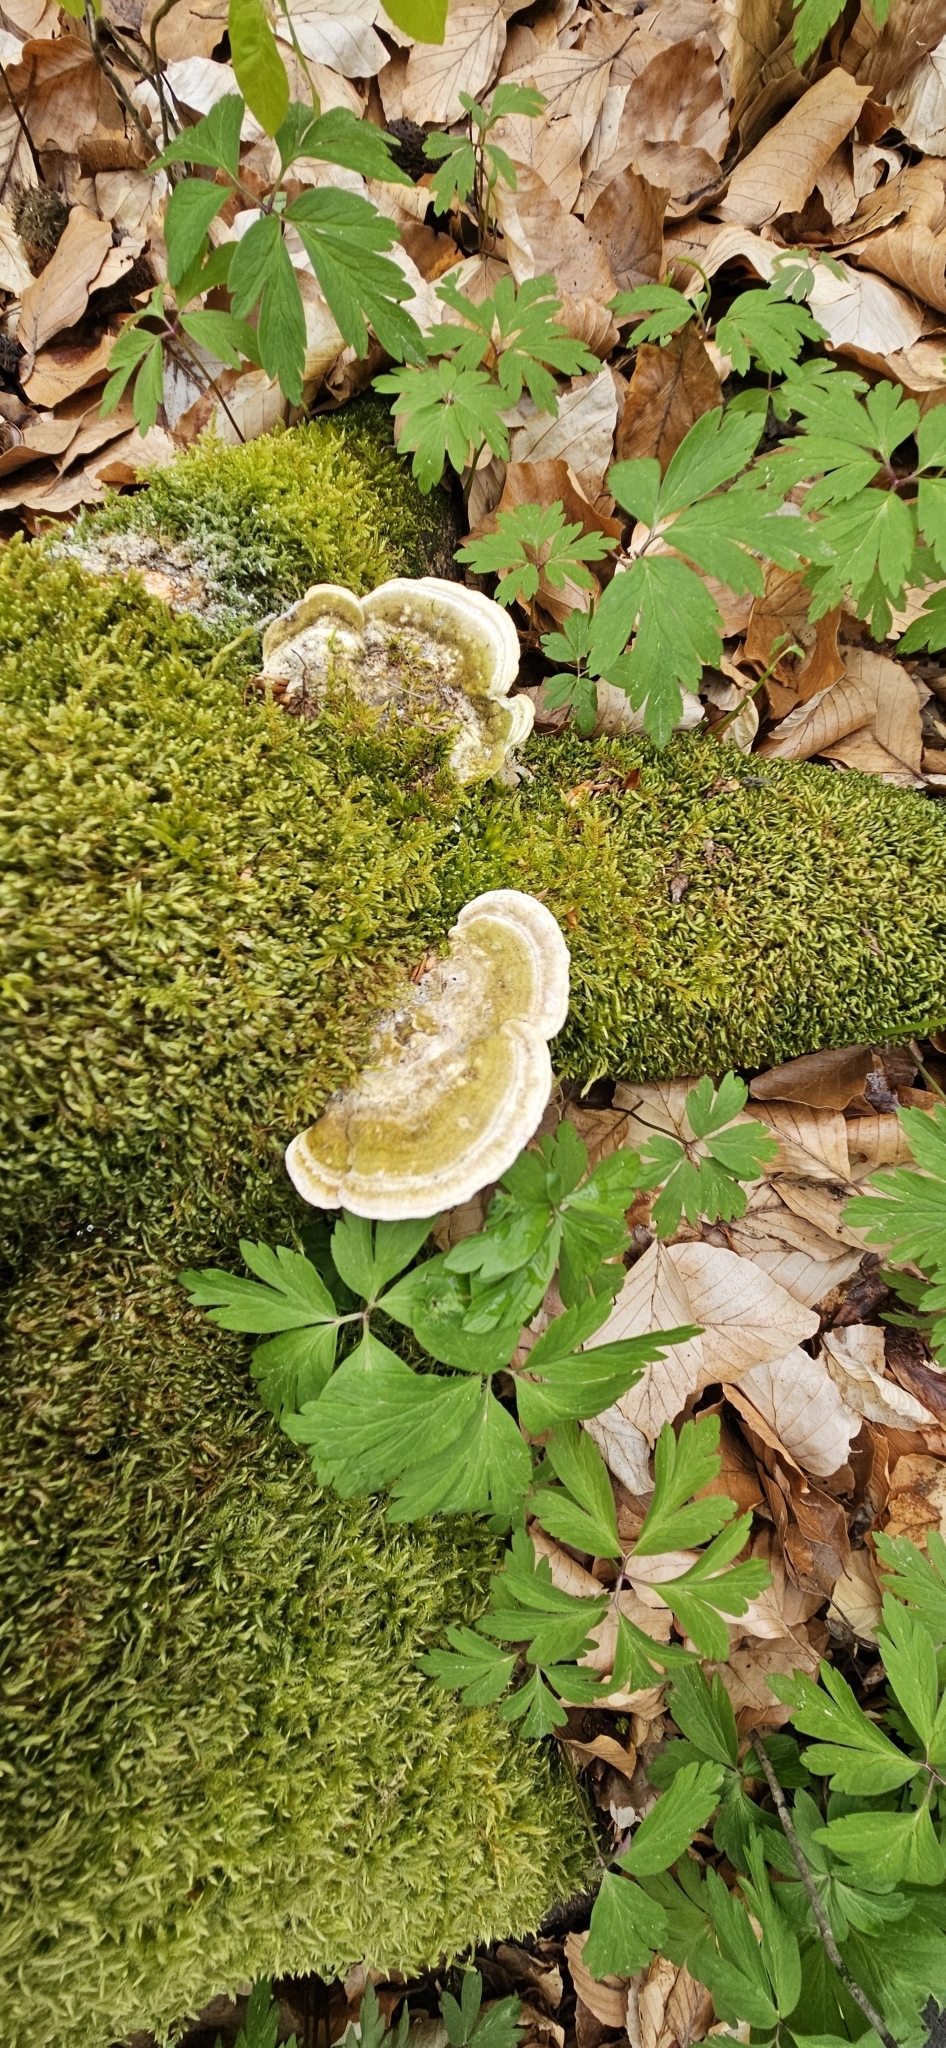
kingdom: Fungi
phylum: Basidiomycota
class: Agaricomycetes
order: Polyporales
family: Polyporaceae
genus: Trametes
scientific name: Trametes gibbosa
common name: Lumpy bracket
